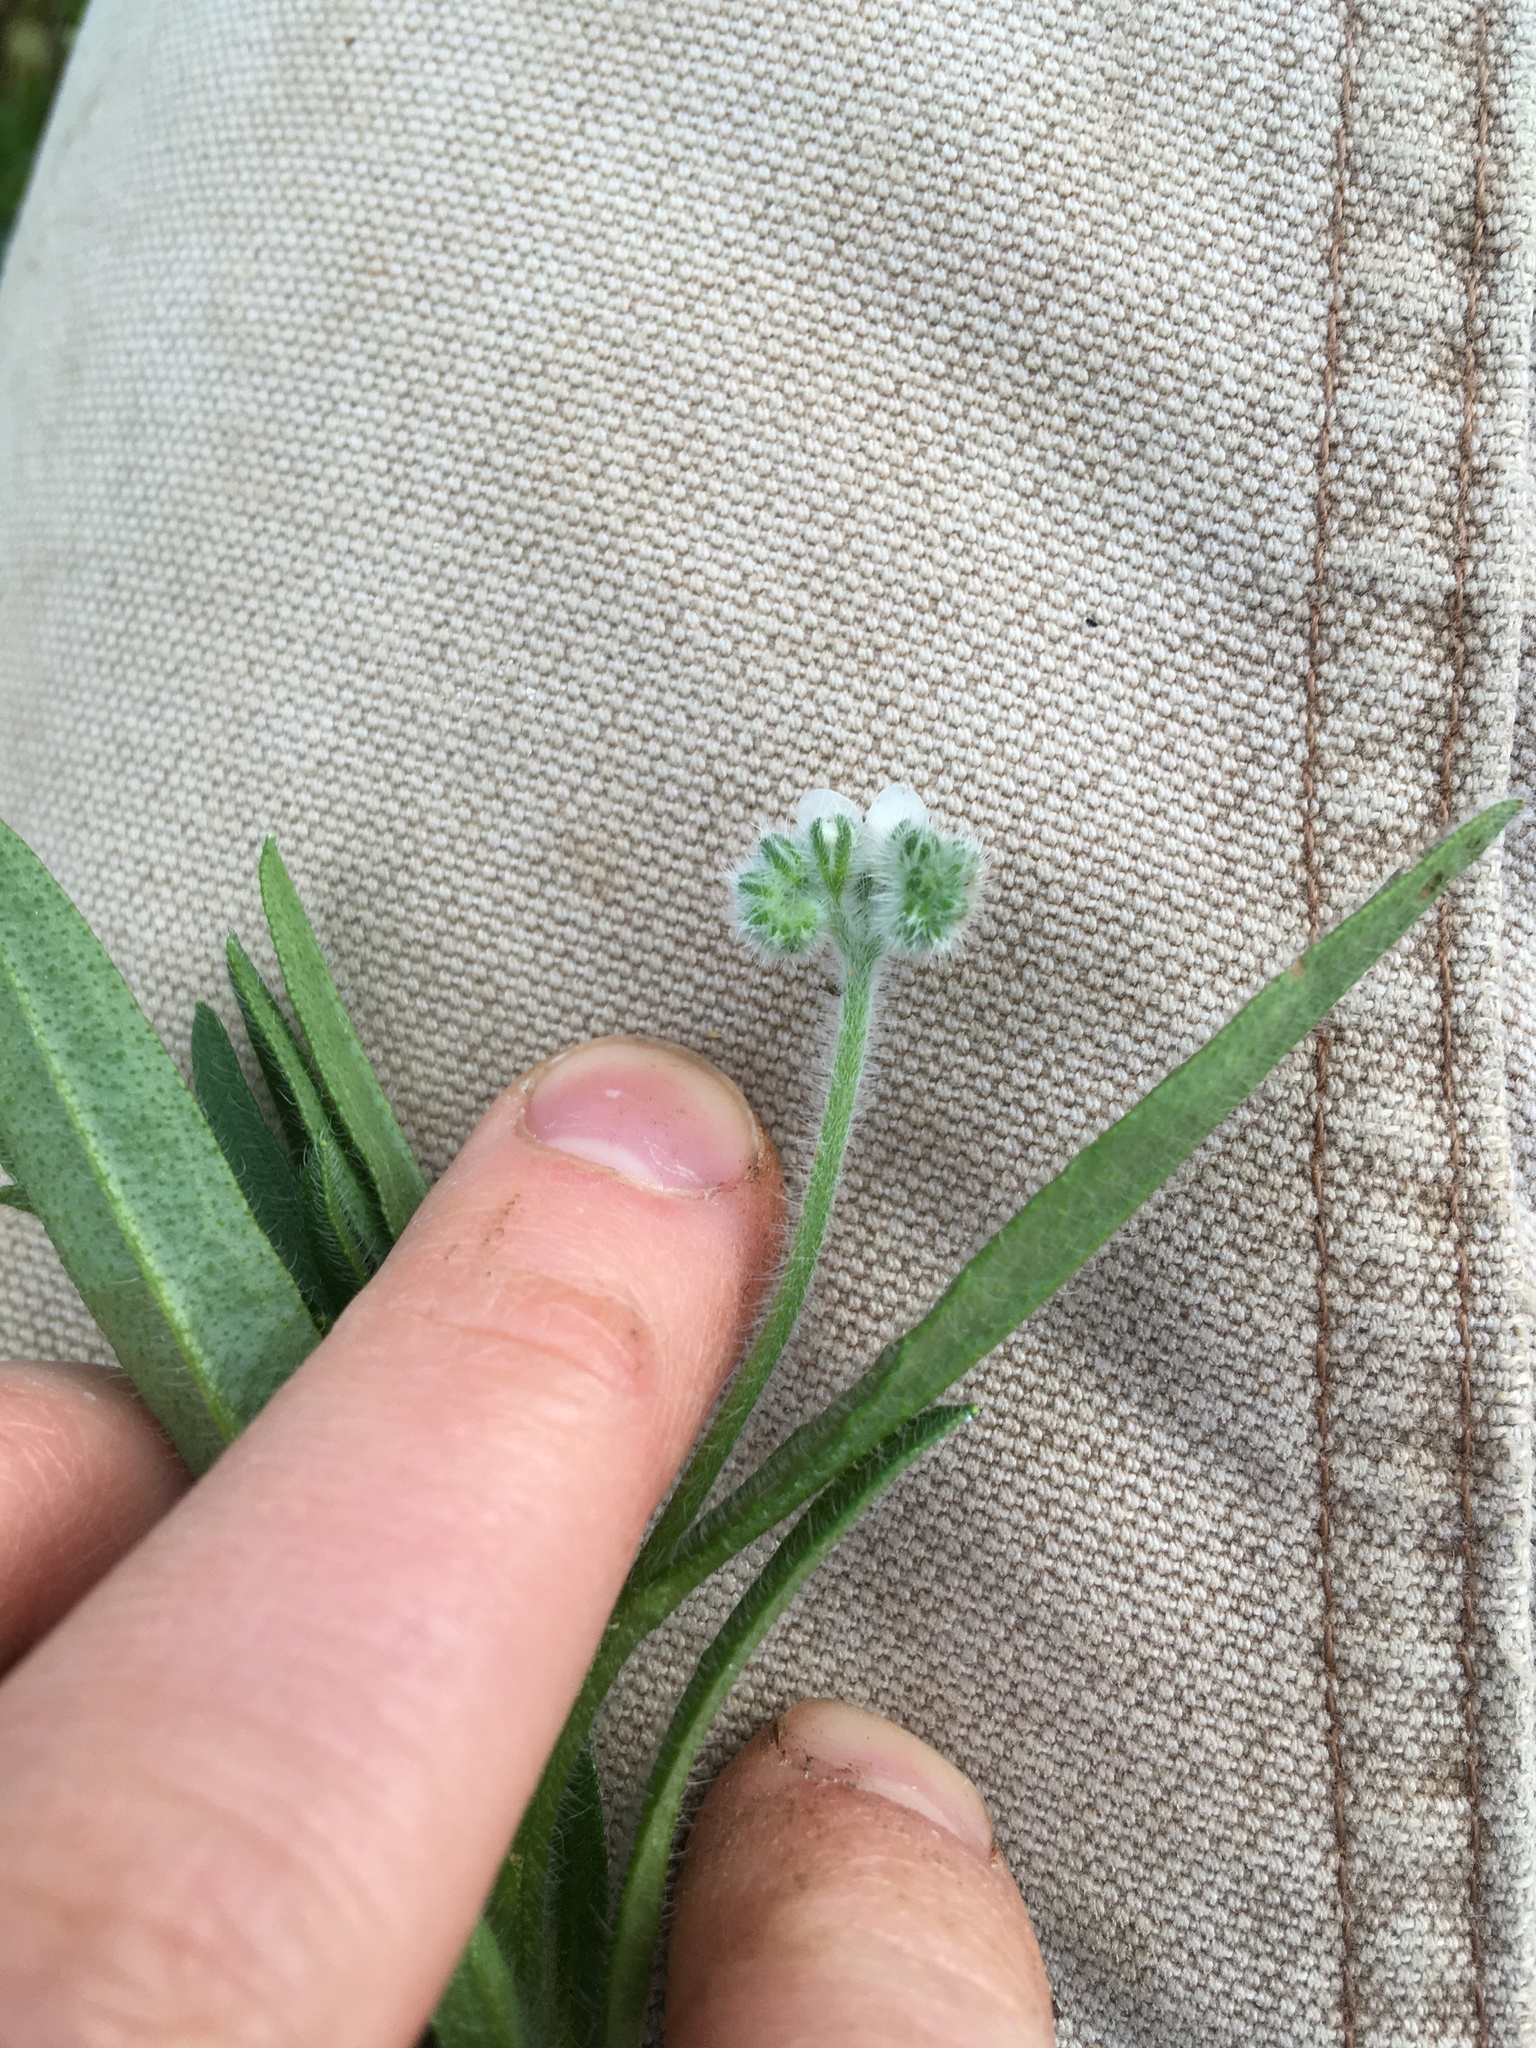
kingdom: Plantae
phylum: Tracheophyta
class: Magnoliopsida
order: Boraginales
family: Boraginaceae
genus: Cryptantha
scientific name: Cryptantha intermedia
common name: Clearwater cryptantha
